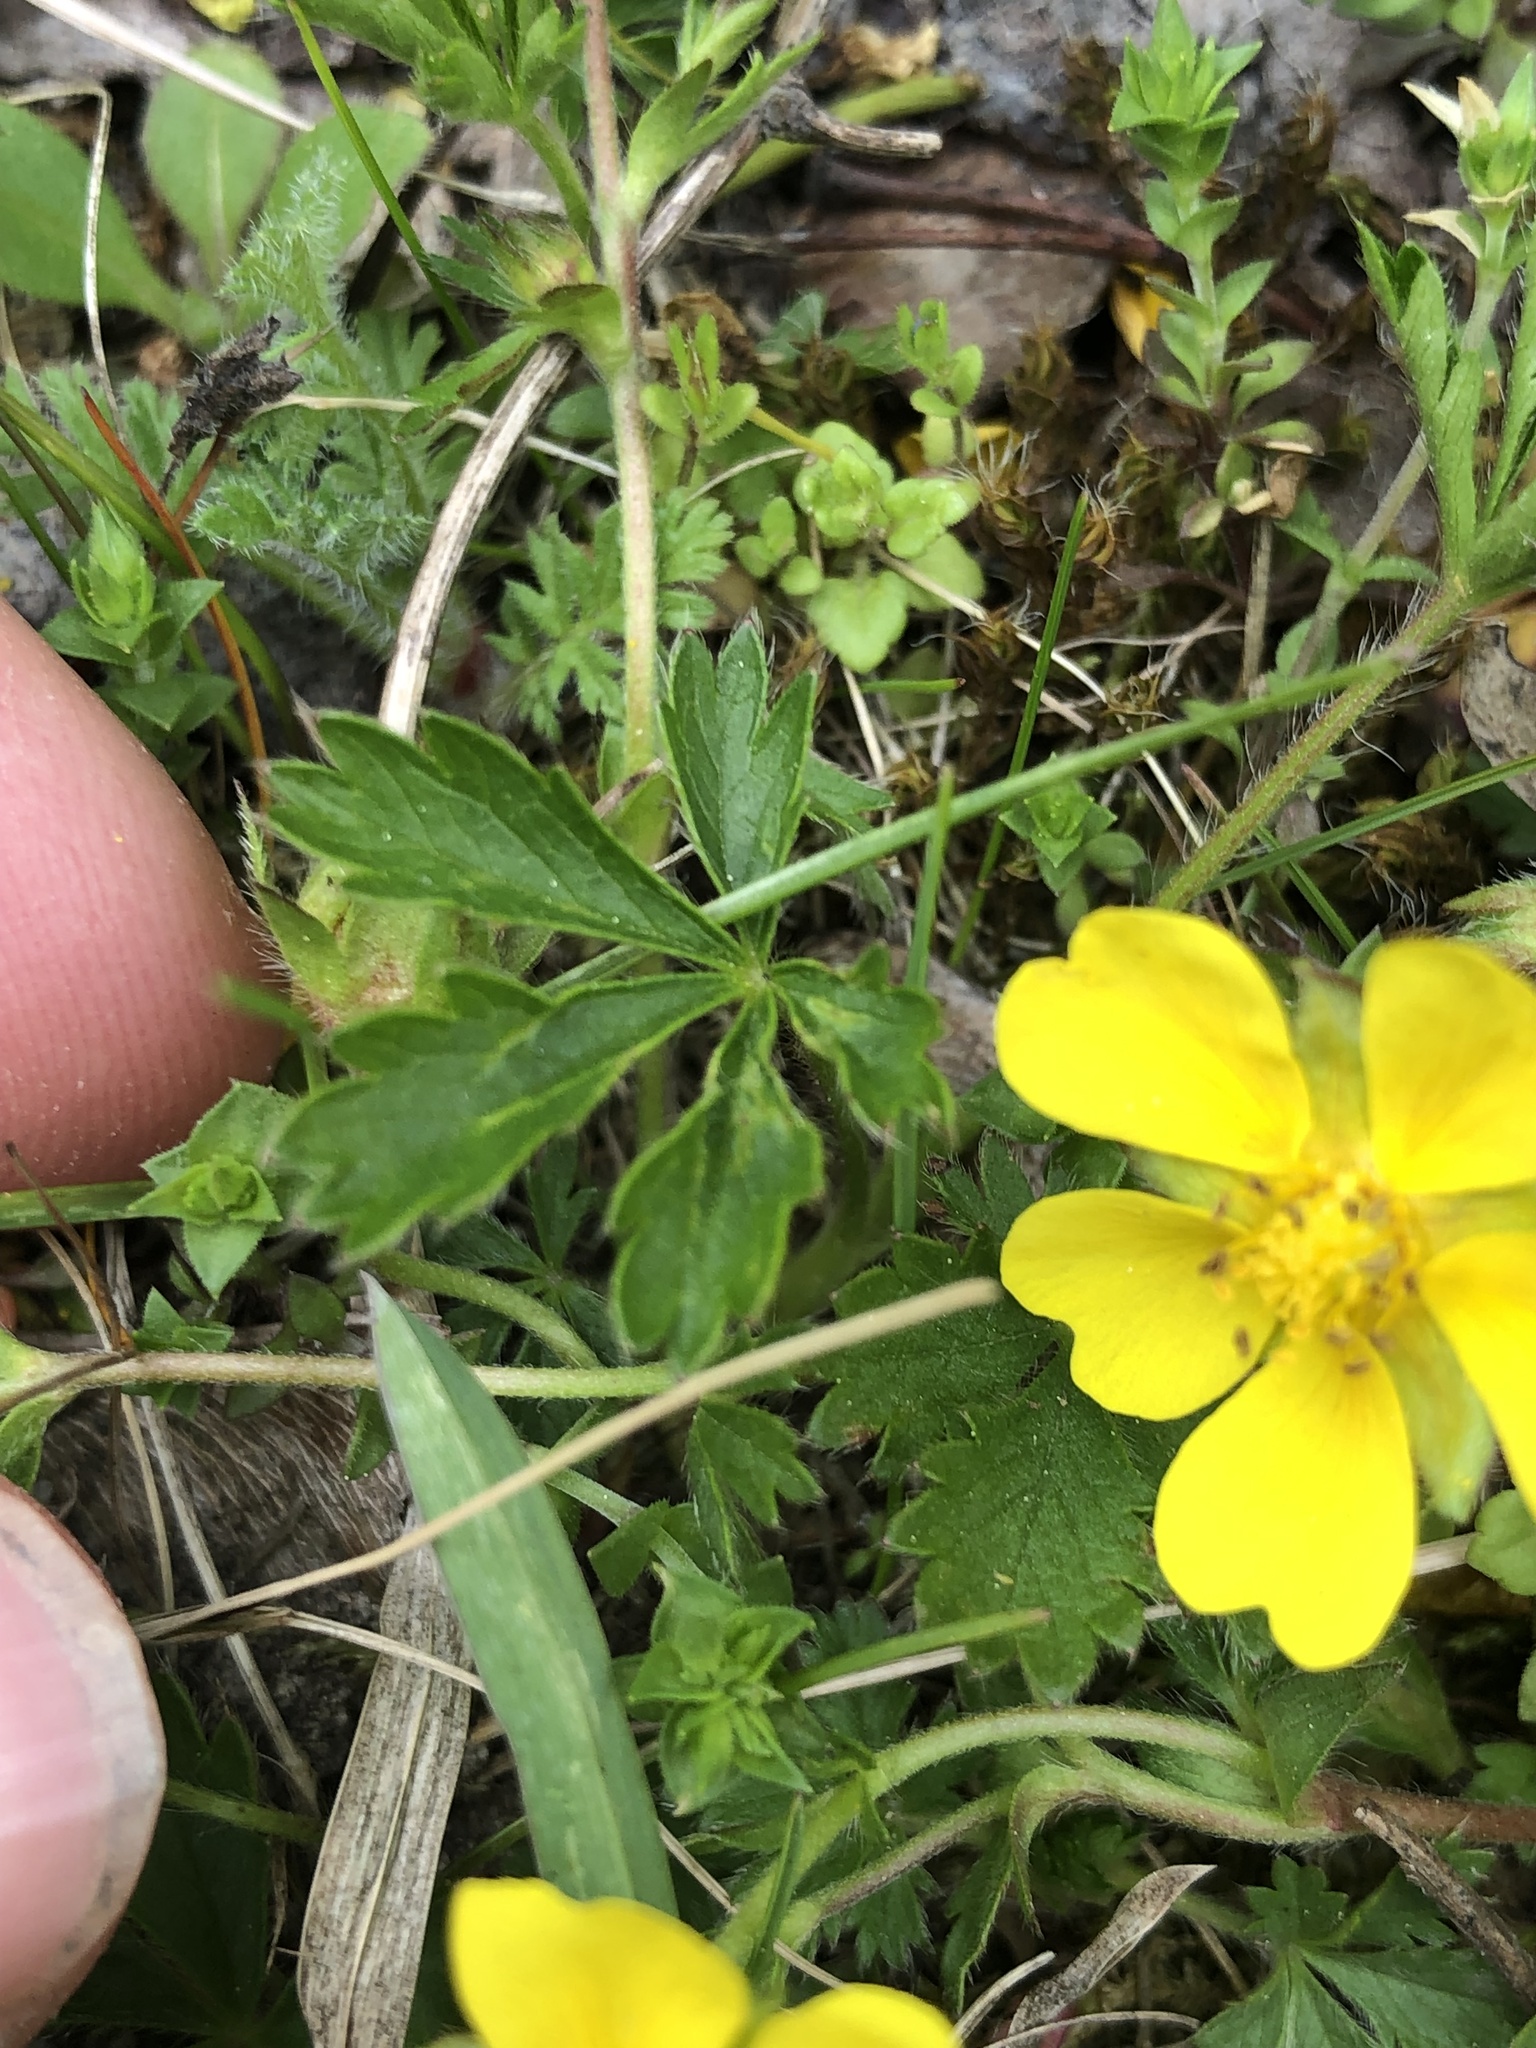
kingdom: Plantae
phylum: Tracheophyta
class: Magnoliopsida
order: Rosales
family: Rosaceae
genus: Potentilla
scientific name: Potentilla reptans
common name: Creeping cinquefoil
